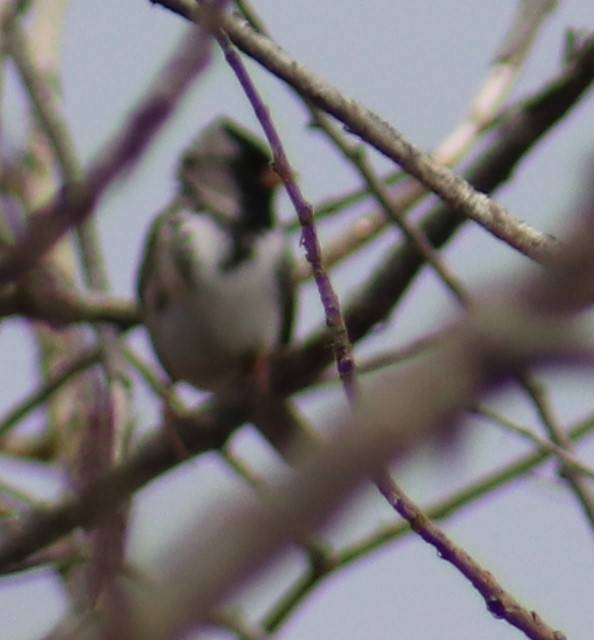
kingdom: Animalia
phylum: Chordata
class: Aves
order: Passeriformes
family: Passerellidae
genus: Zonotrichia
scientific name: Zonotrichia querula
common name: Harris's sparrow
